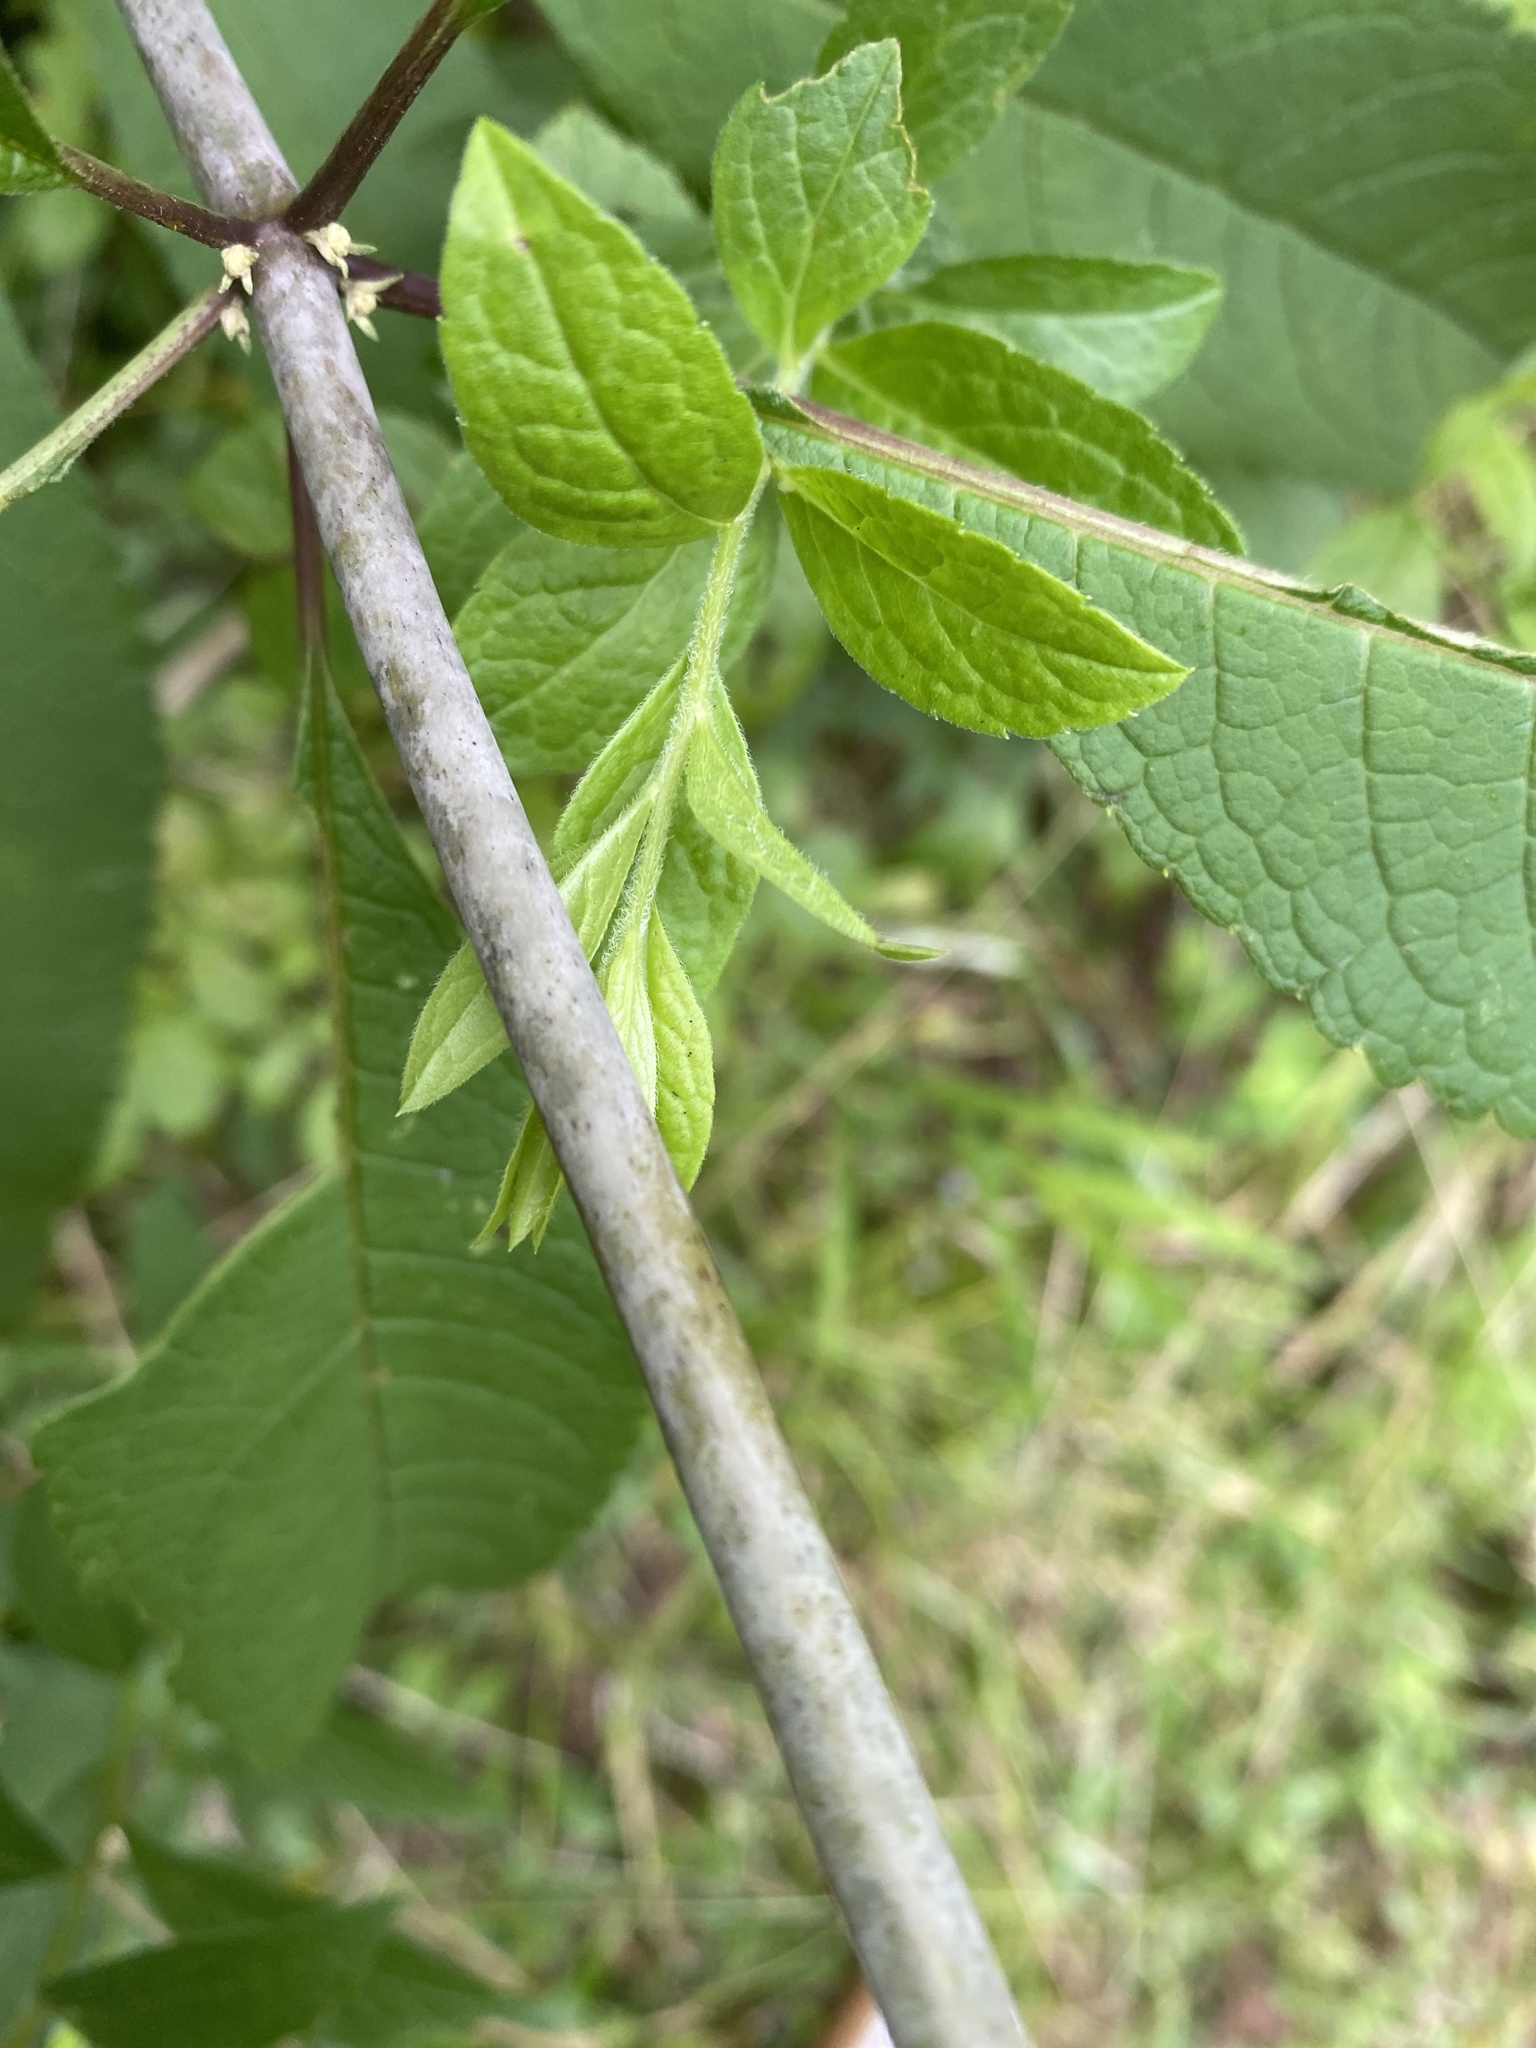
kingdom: Plantae
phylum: Tracheophyta
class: Magnoliopsida
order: Asterales
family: Asteraceae
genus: Eutrochium
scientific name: Eutrochium maculatum
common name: Spotted joe pye weed
